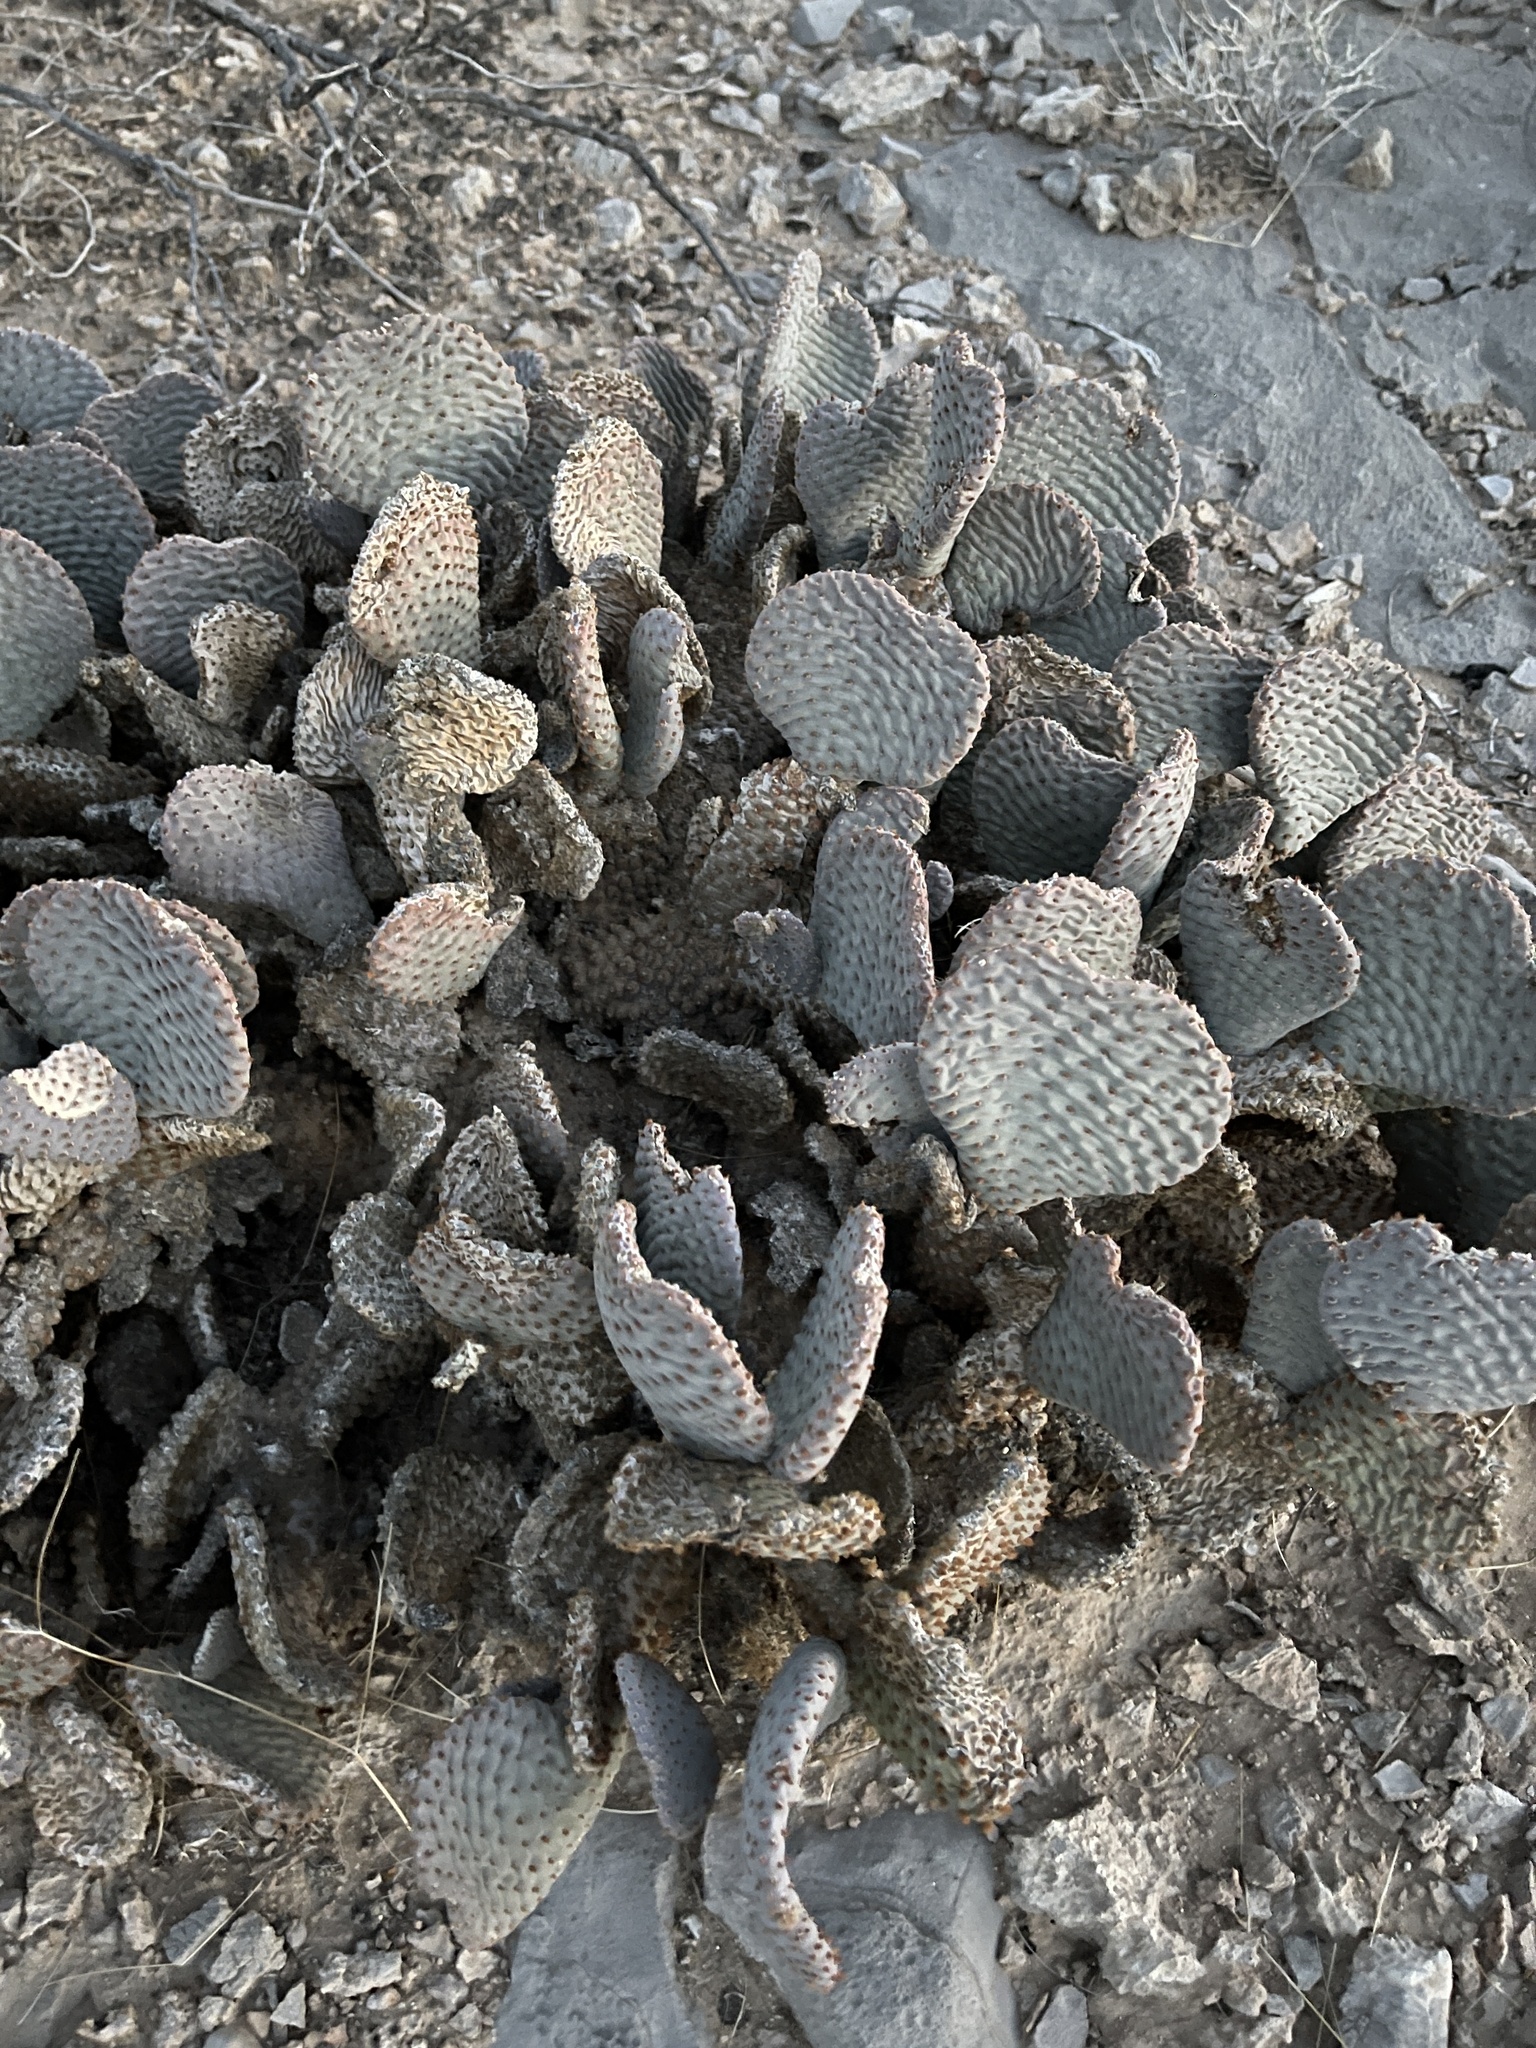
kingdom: Plantae
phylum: Tracheophyta
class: Magnoliopsida
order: Caryophyllales
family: Cactaceae
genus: Opuntia
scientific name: Opuntia basilaris
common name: Beavertail prickly-pear
